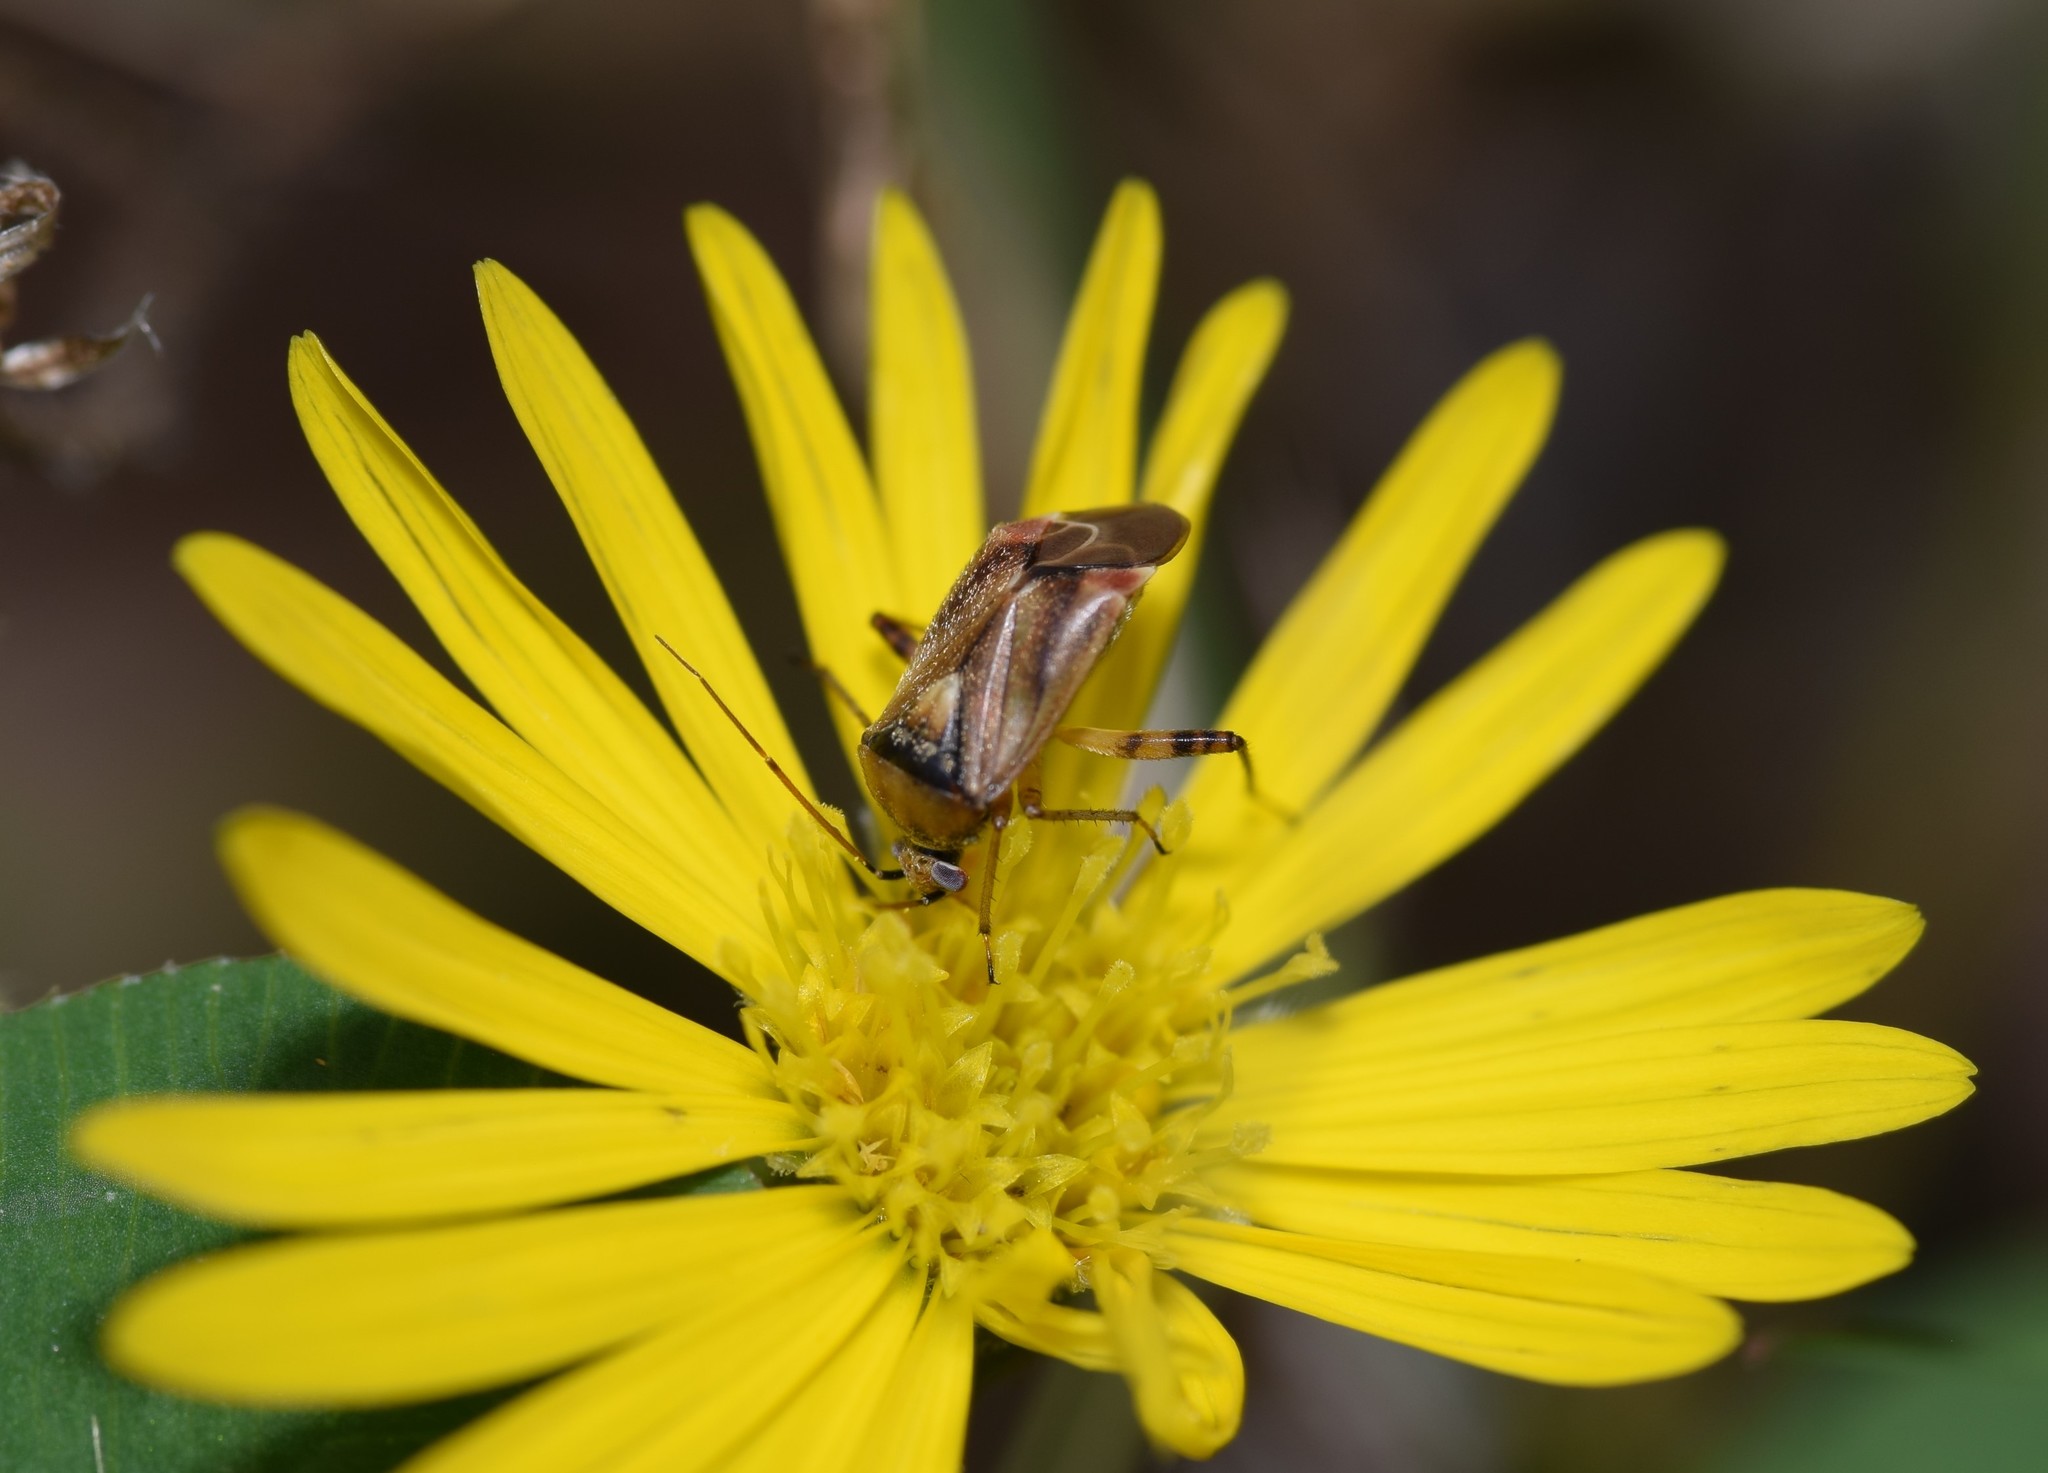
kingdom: Animalia
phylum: Arthropoda
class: Insecta
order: Hemiptera
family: Miridae
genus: Polymerus
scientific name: Polymerus basalis
